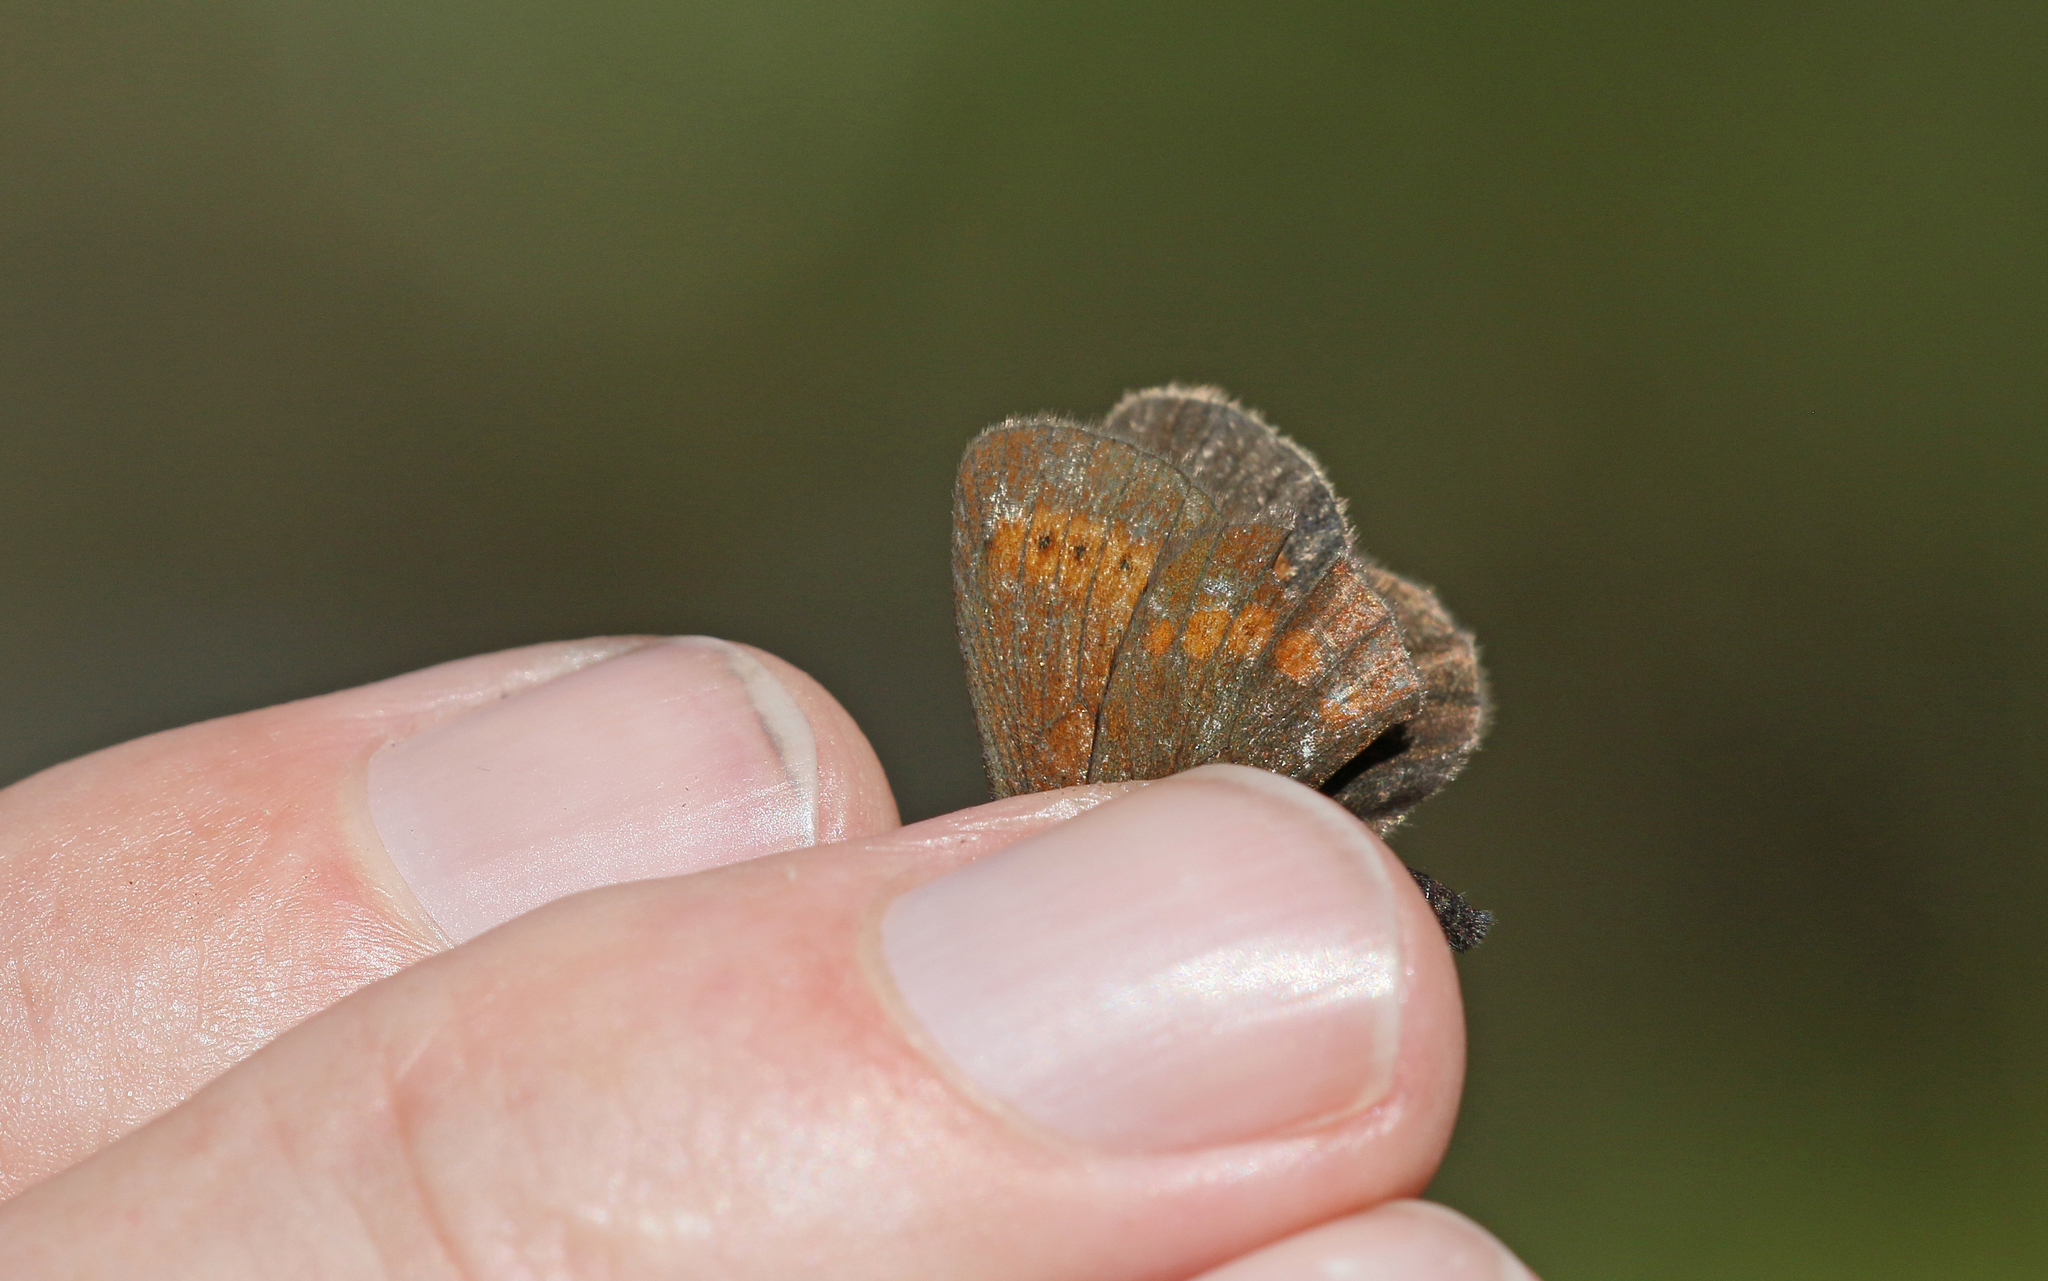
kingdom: Animalia
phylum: Arthropoda
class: Insecta
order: Lepidoptera
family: Nymphalidae
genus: Erebia
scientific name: Erebia
